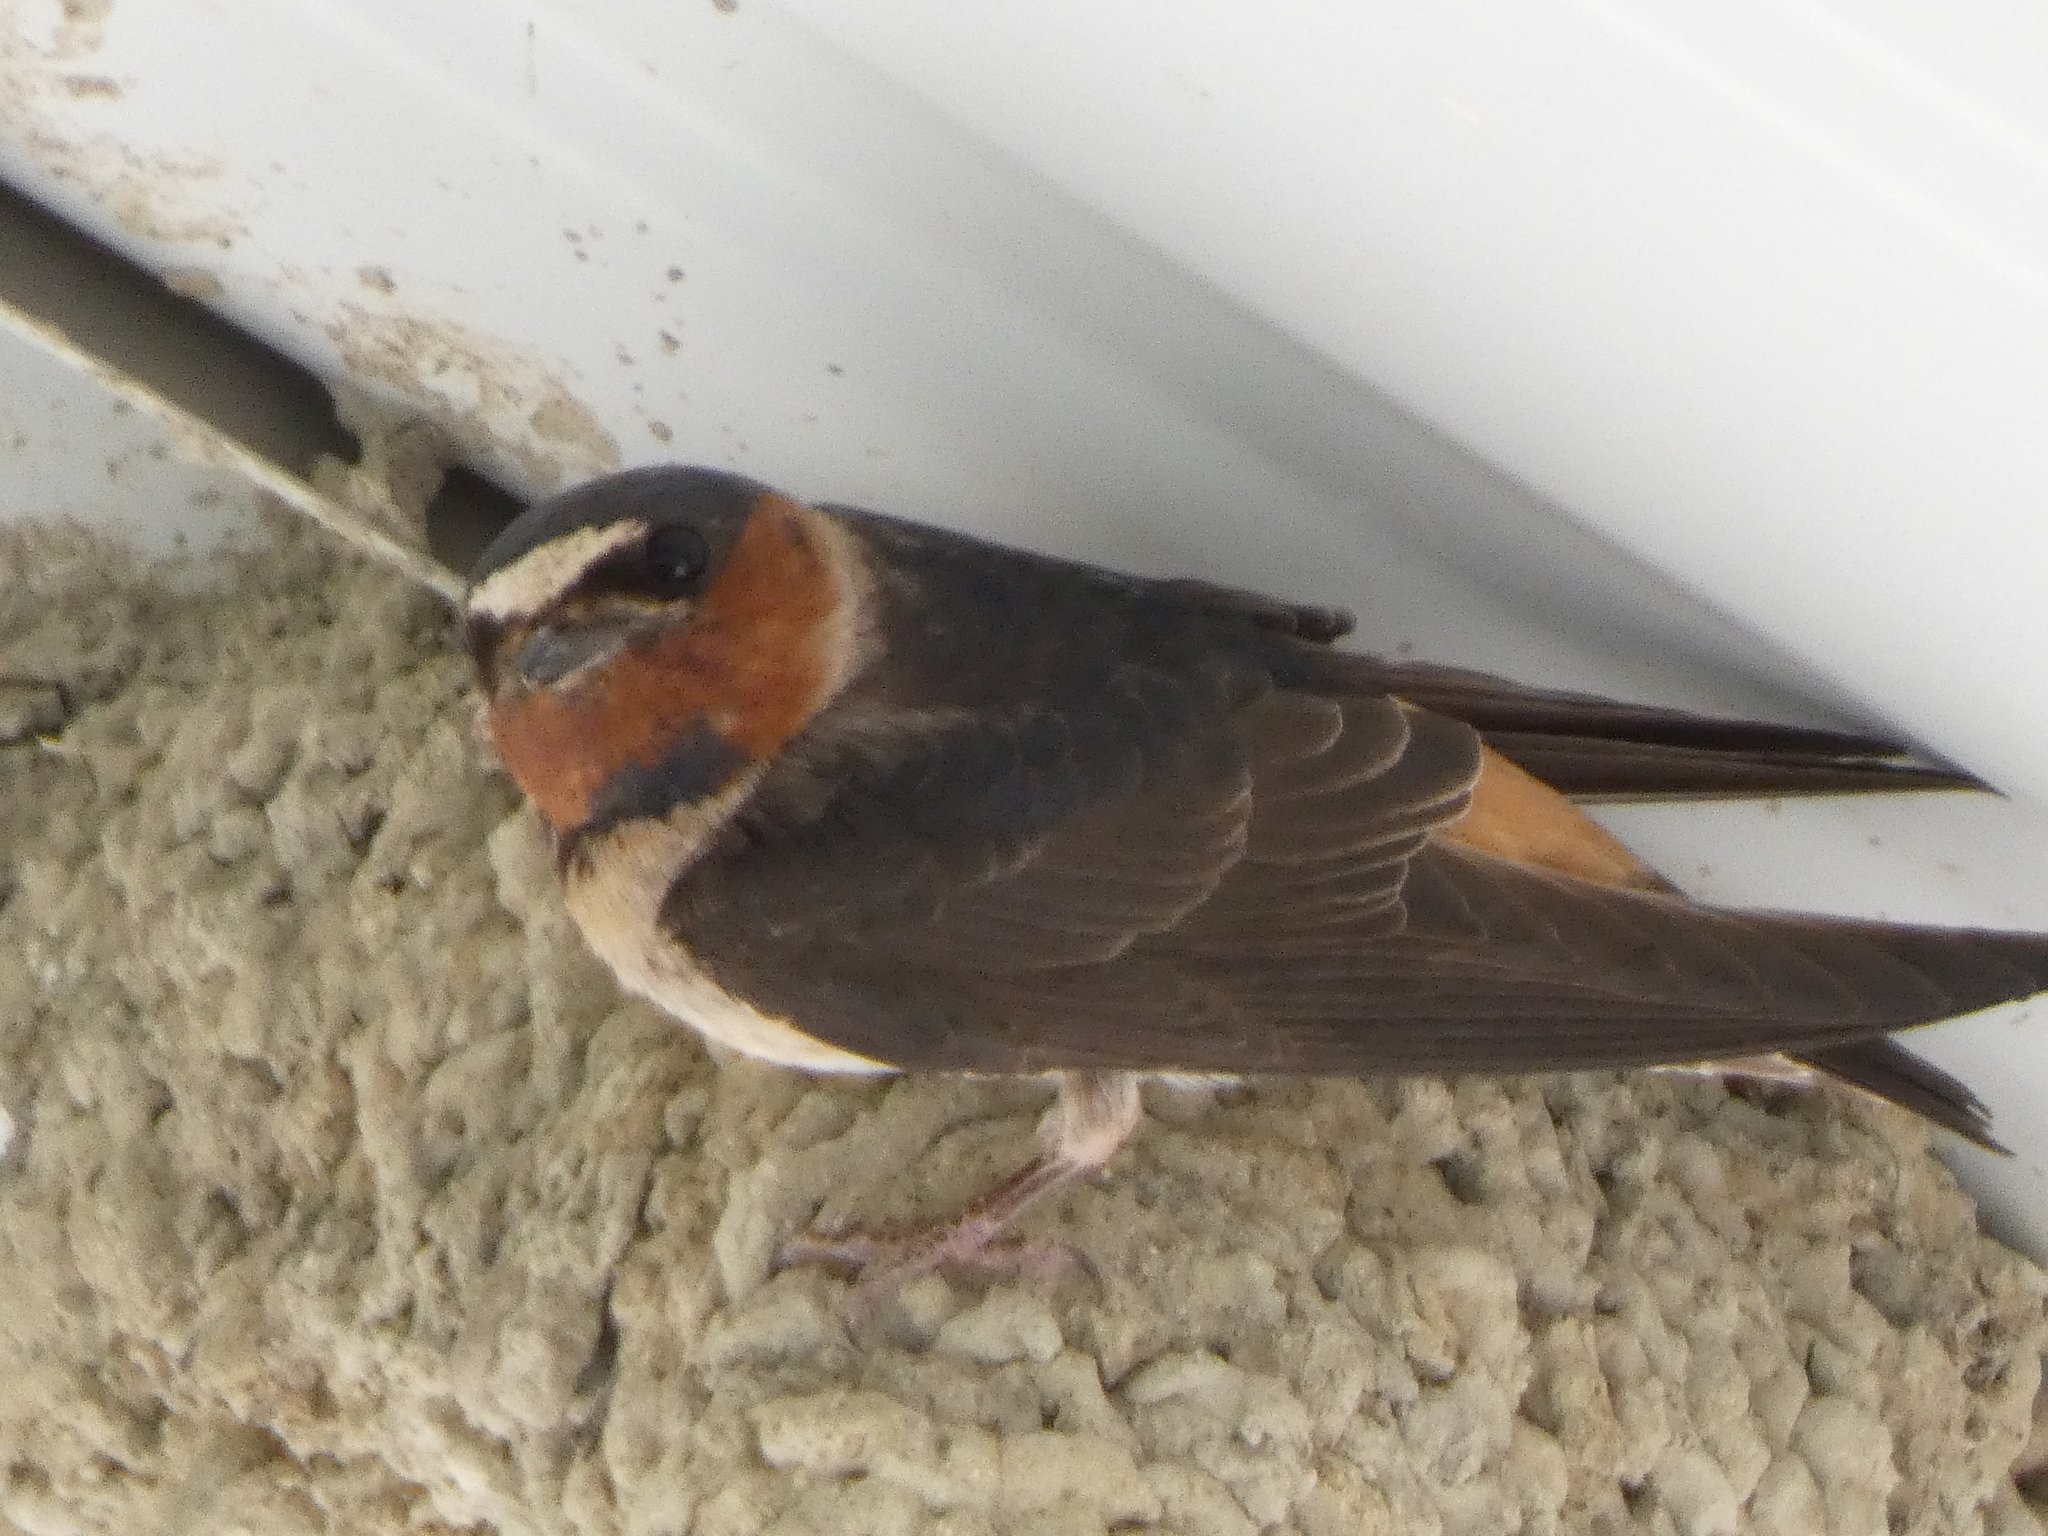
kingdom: Animalia
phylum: Chordata
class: Aves
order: Passeriformes
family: Hirundinidae
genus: Petrochelidon
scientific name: Petrochelidon pyrrhonota
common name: American cliff swallow
